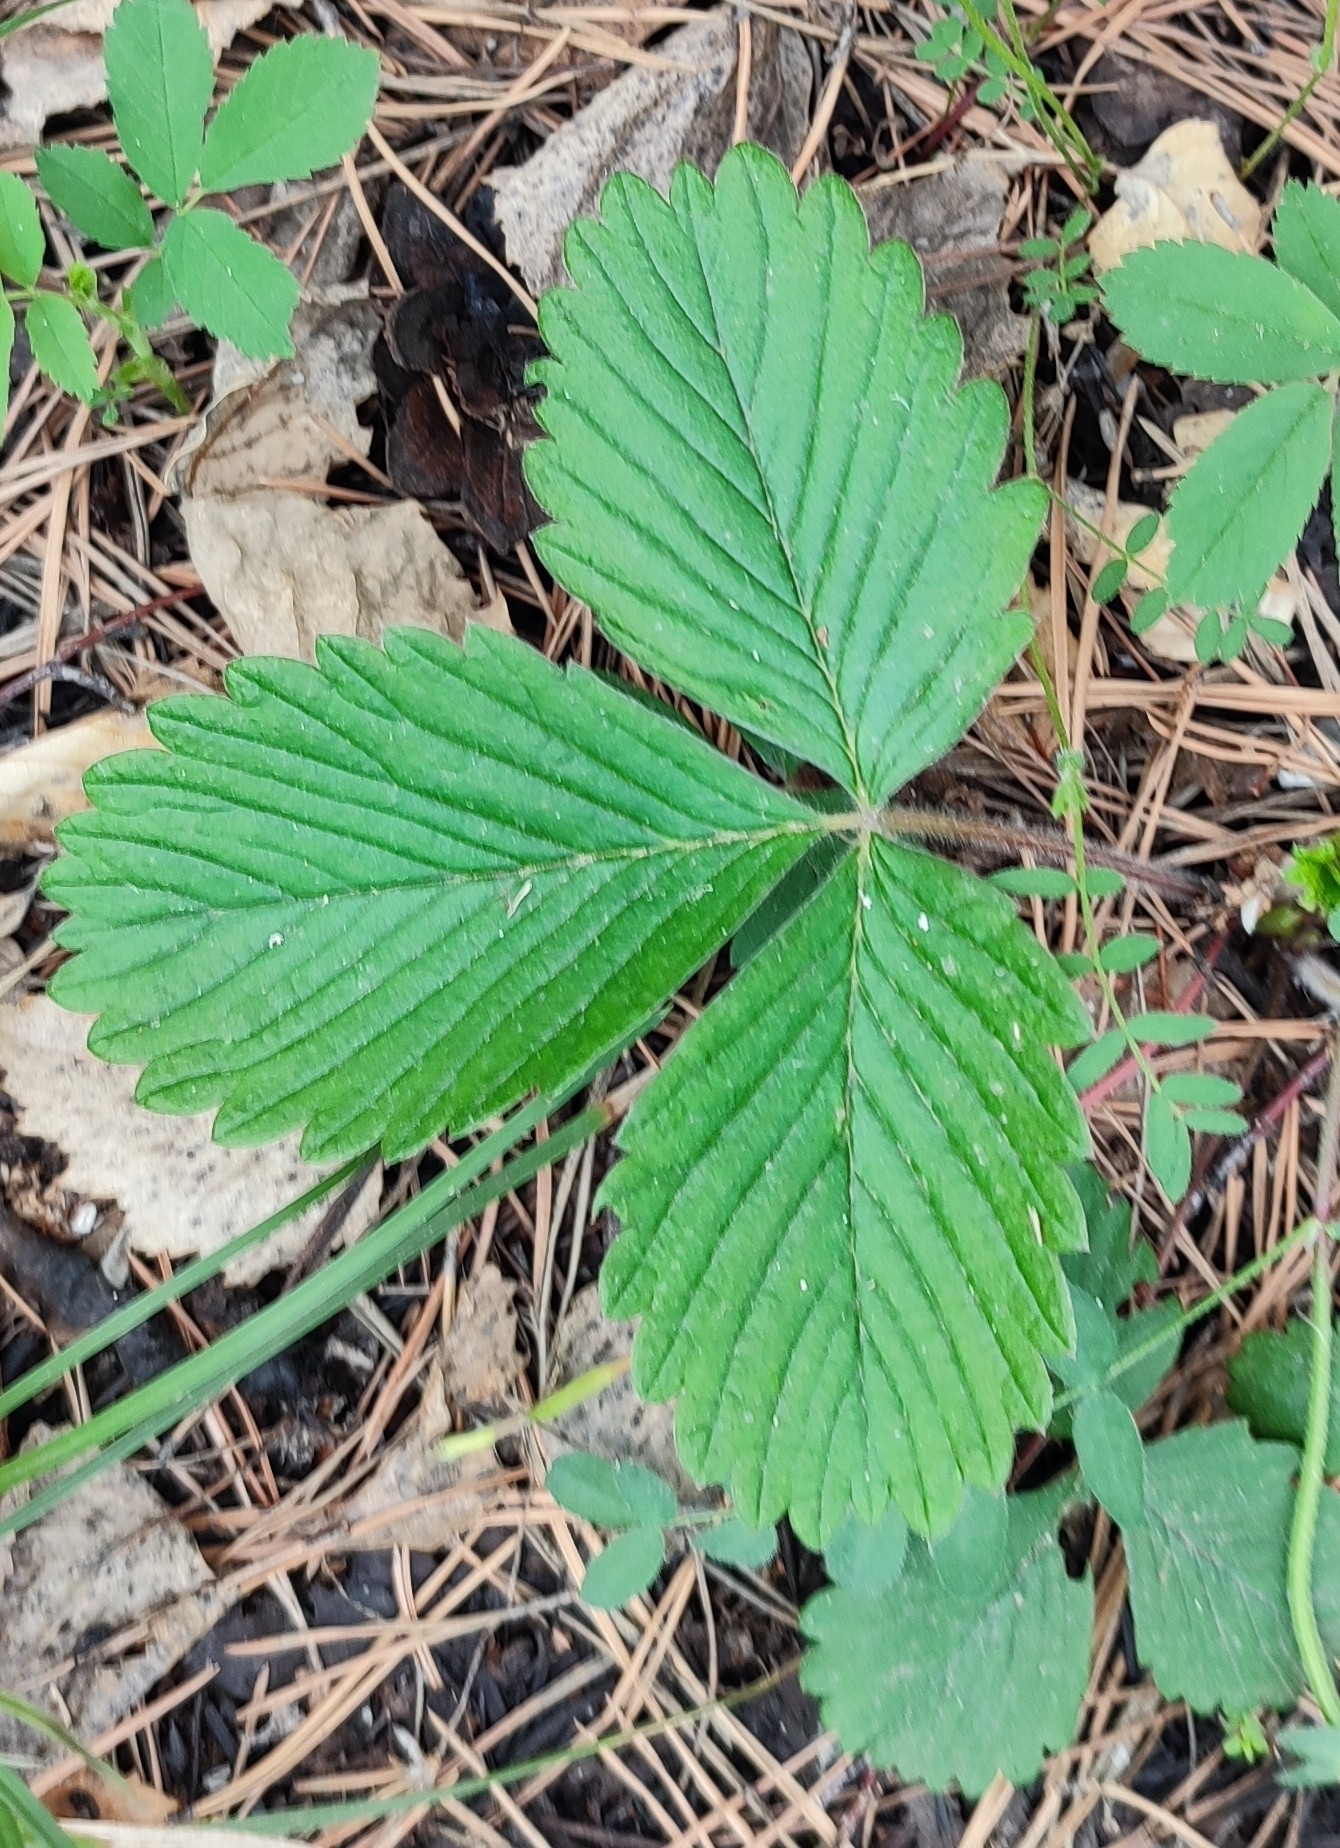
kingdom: Plantae
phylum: Tracheophyta
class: Magnoliopsida
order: Rosales
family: Rosaceae
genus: Fragaria
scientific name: Fragaria viridis
